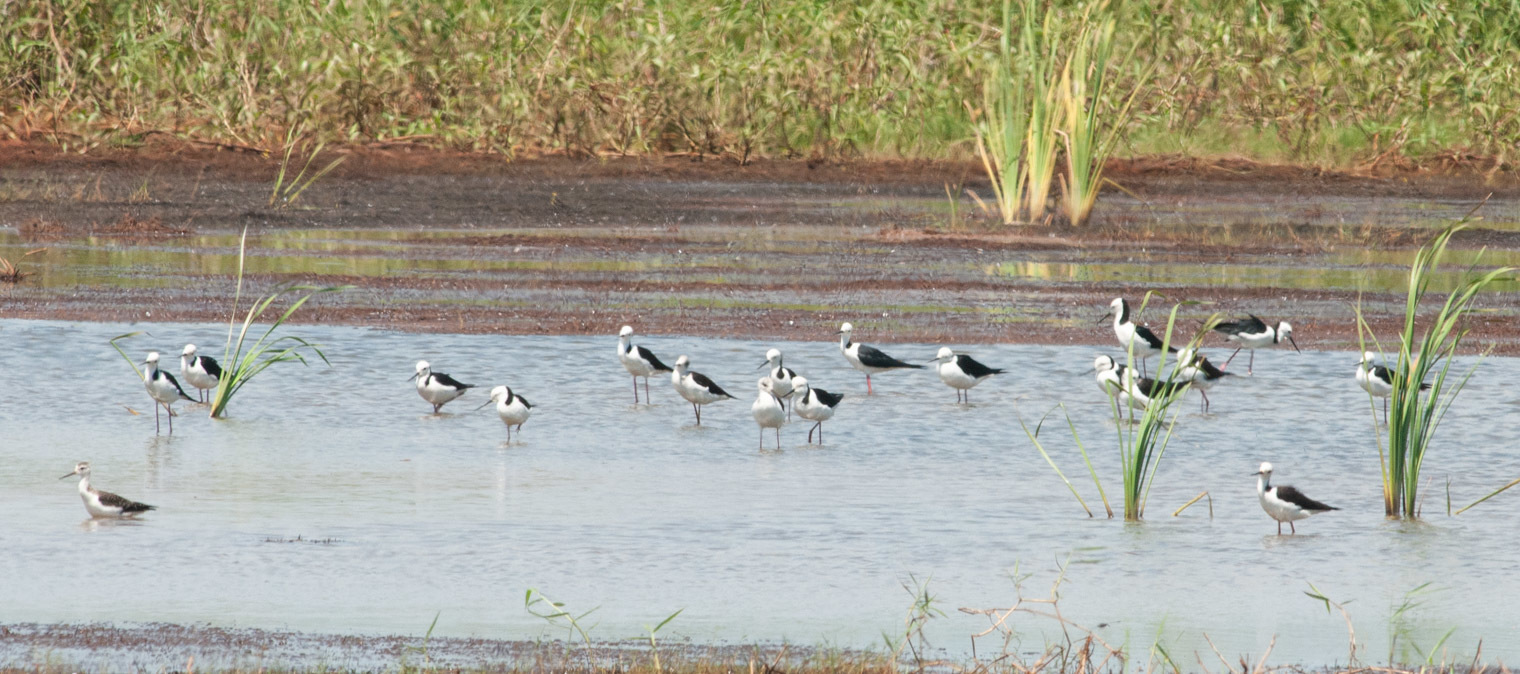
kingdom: Animalia
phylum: Chordata
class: Aves
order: Charadriiformes
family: Recurvirostridae
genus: Himantopus
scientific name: Himantopus leucocephalus
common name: White-headed stilt
